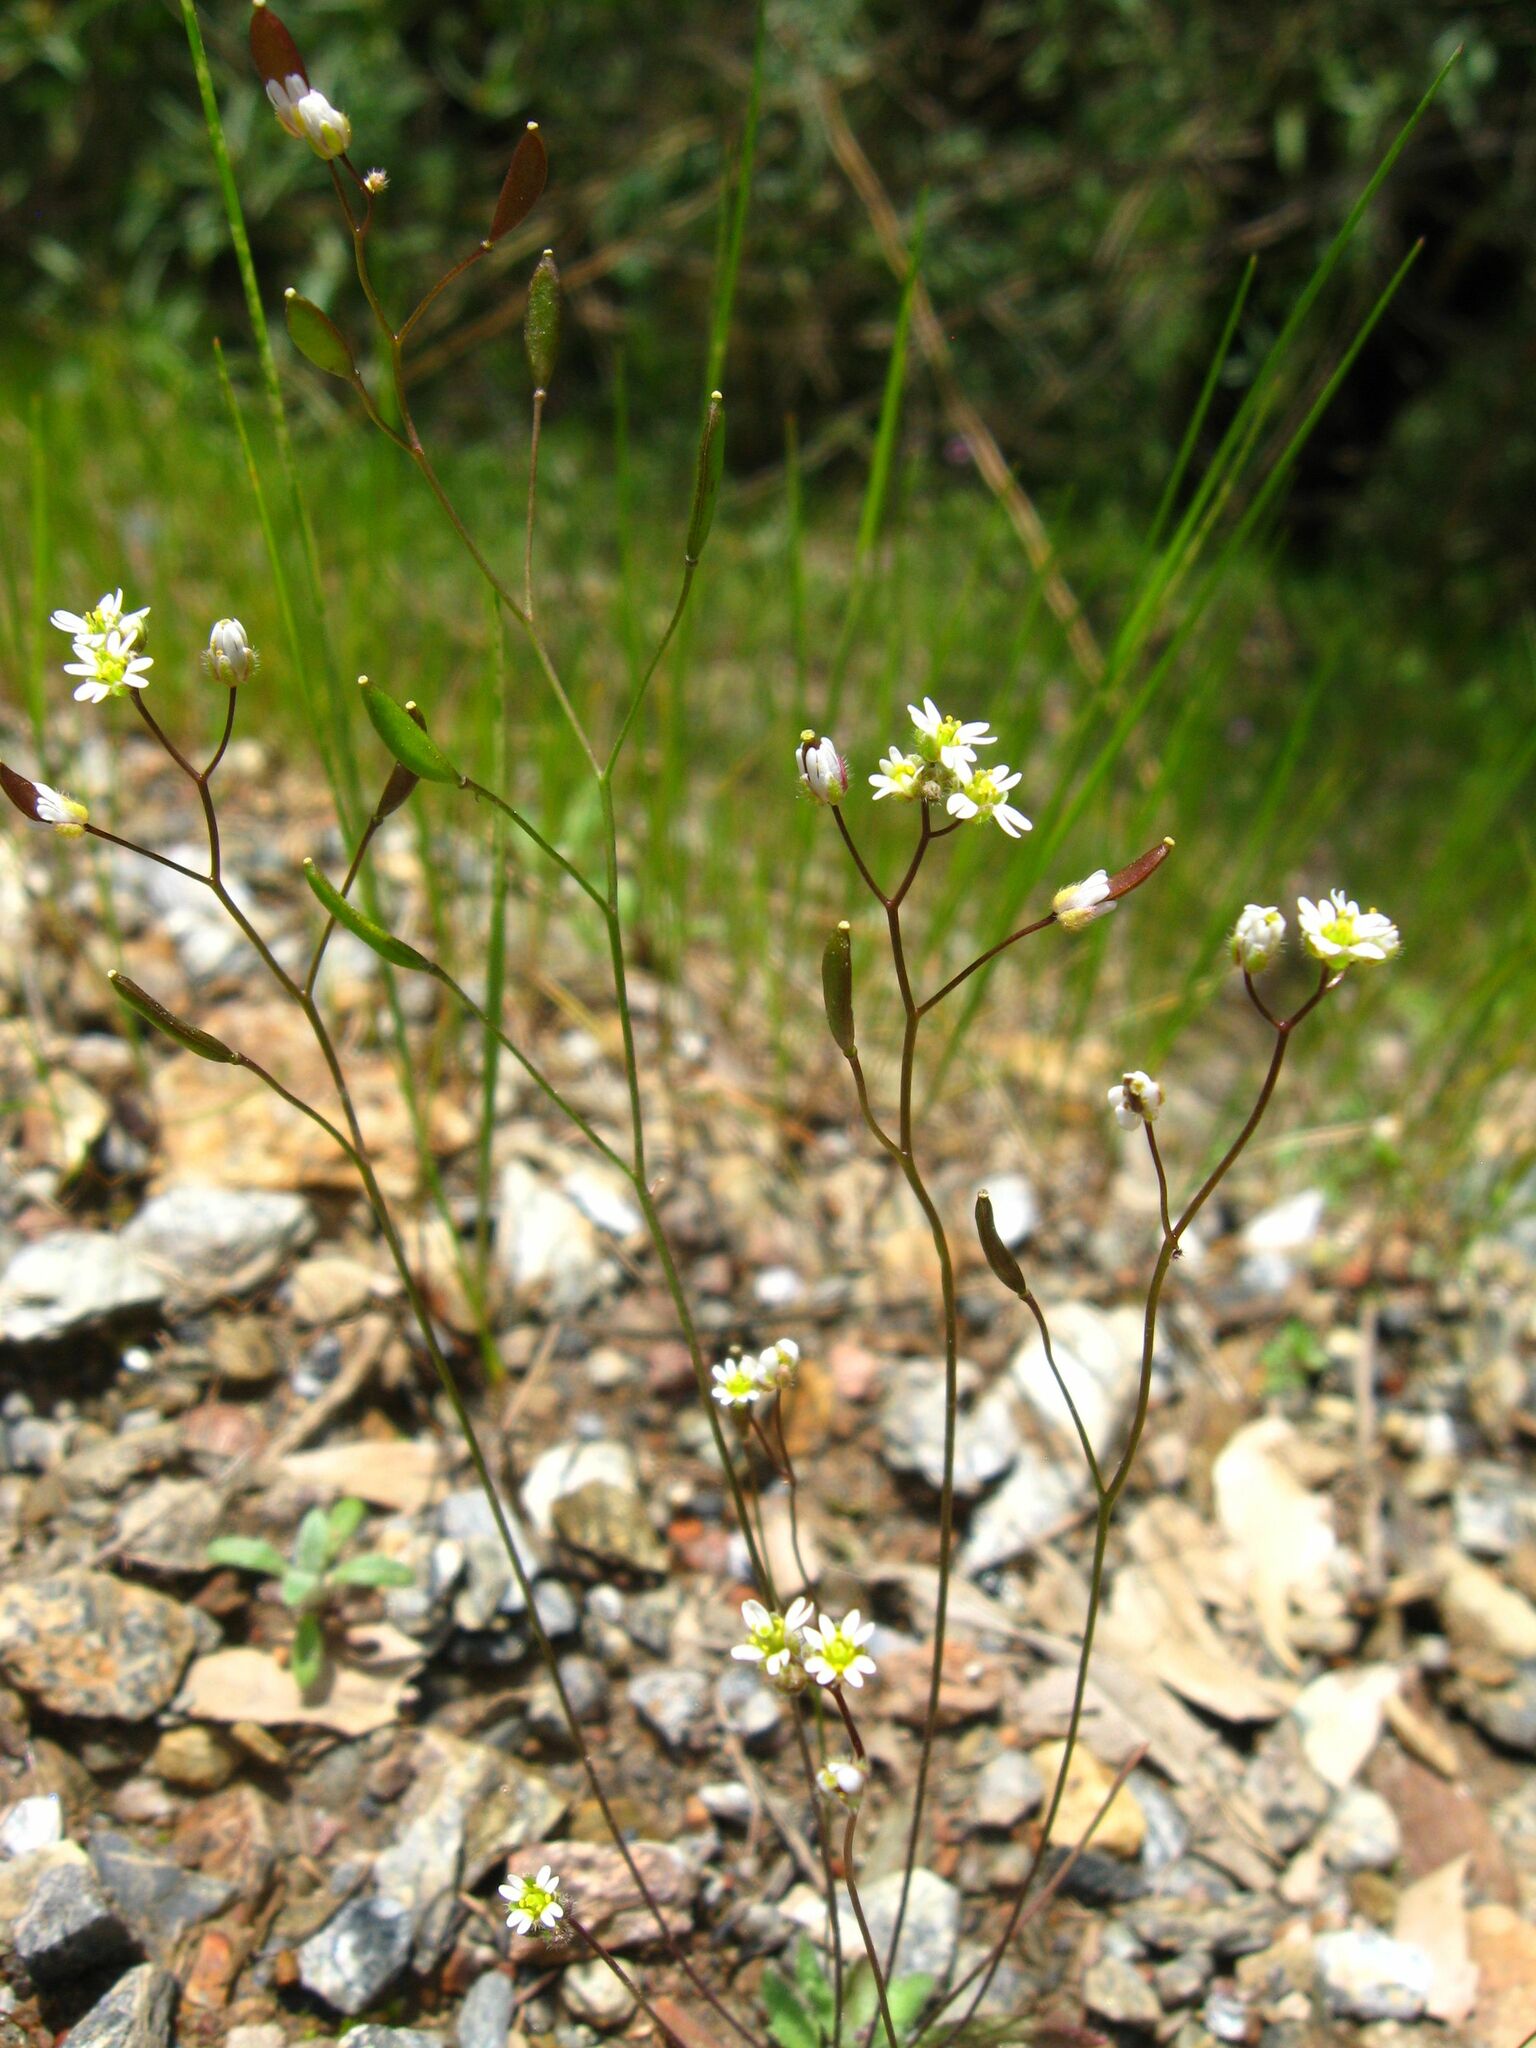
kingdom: Plantae
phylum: Tracheophyta
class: Magnoliopsida
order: Brassicales
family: Brassicaceae
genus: Draba
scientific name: Draba verna
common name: Spring draba
